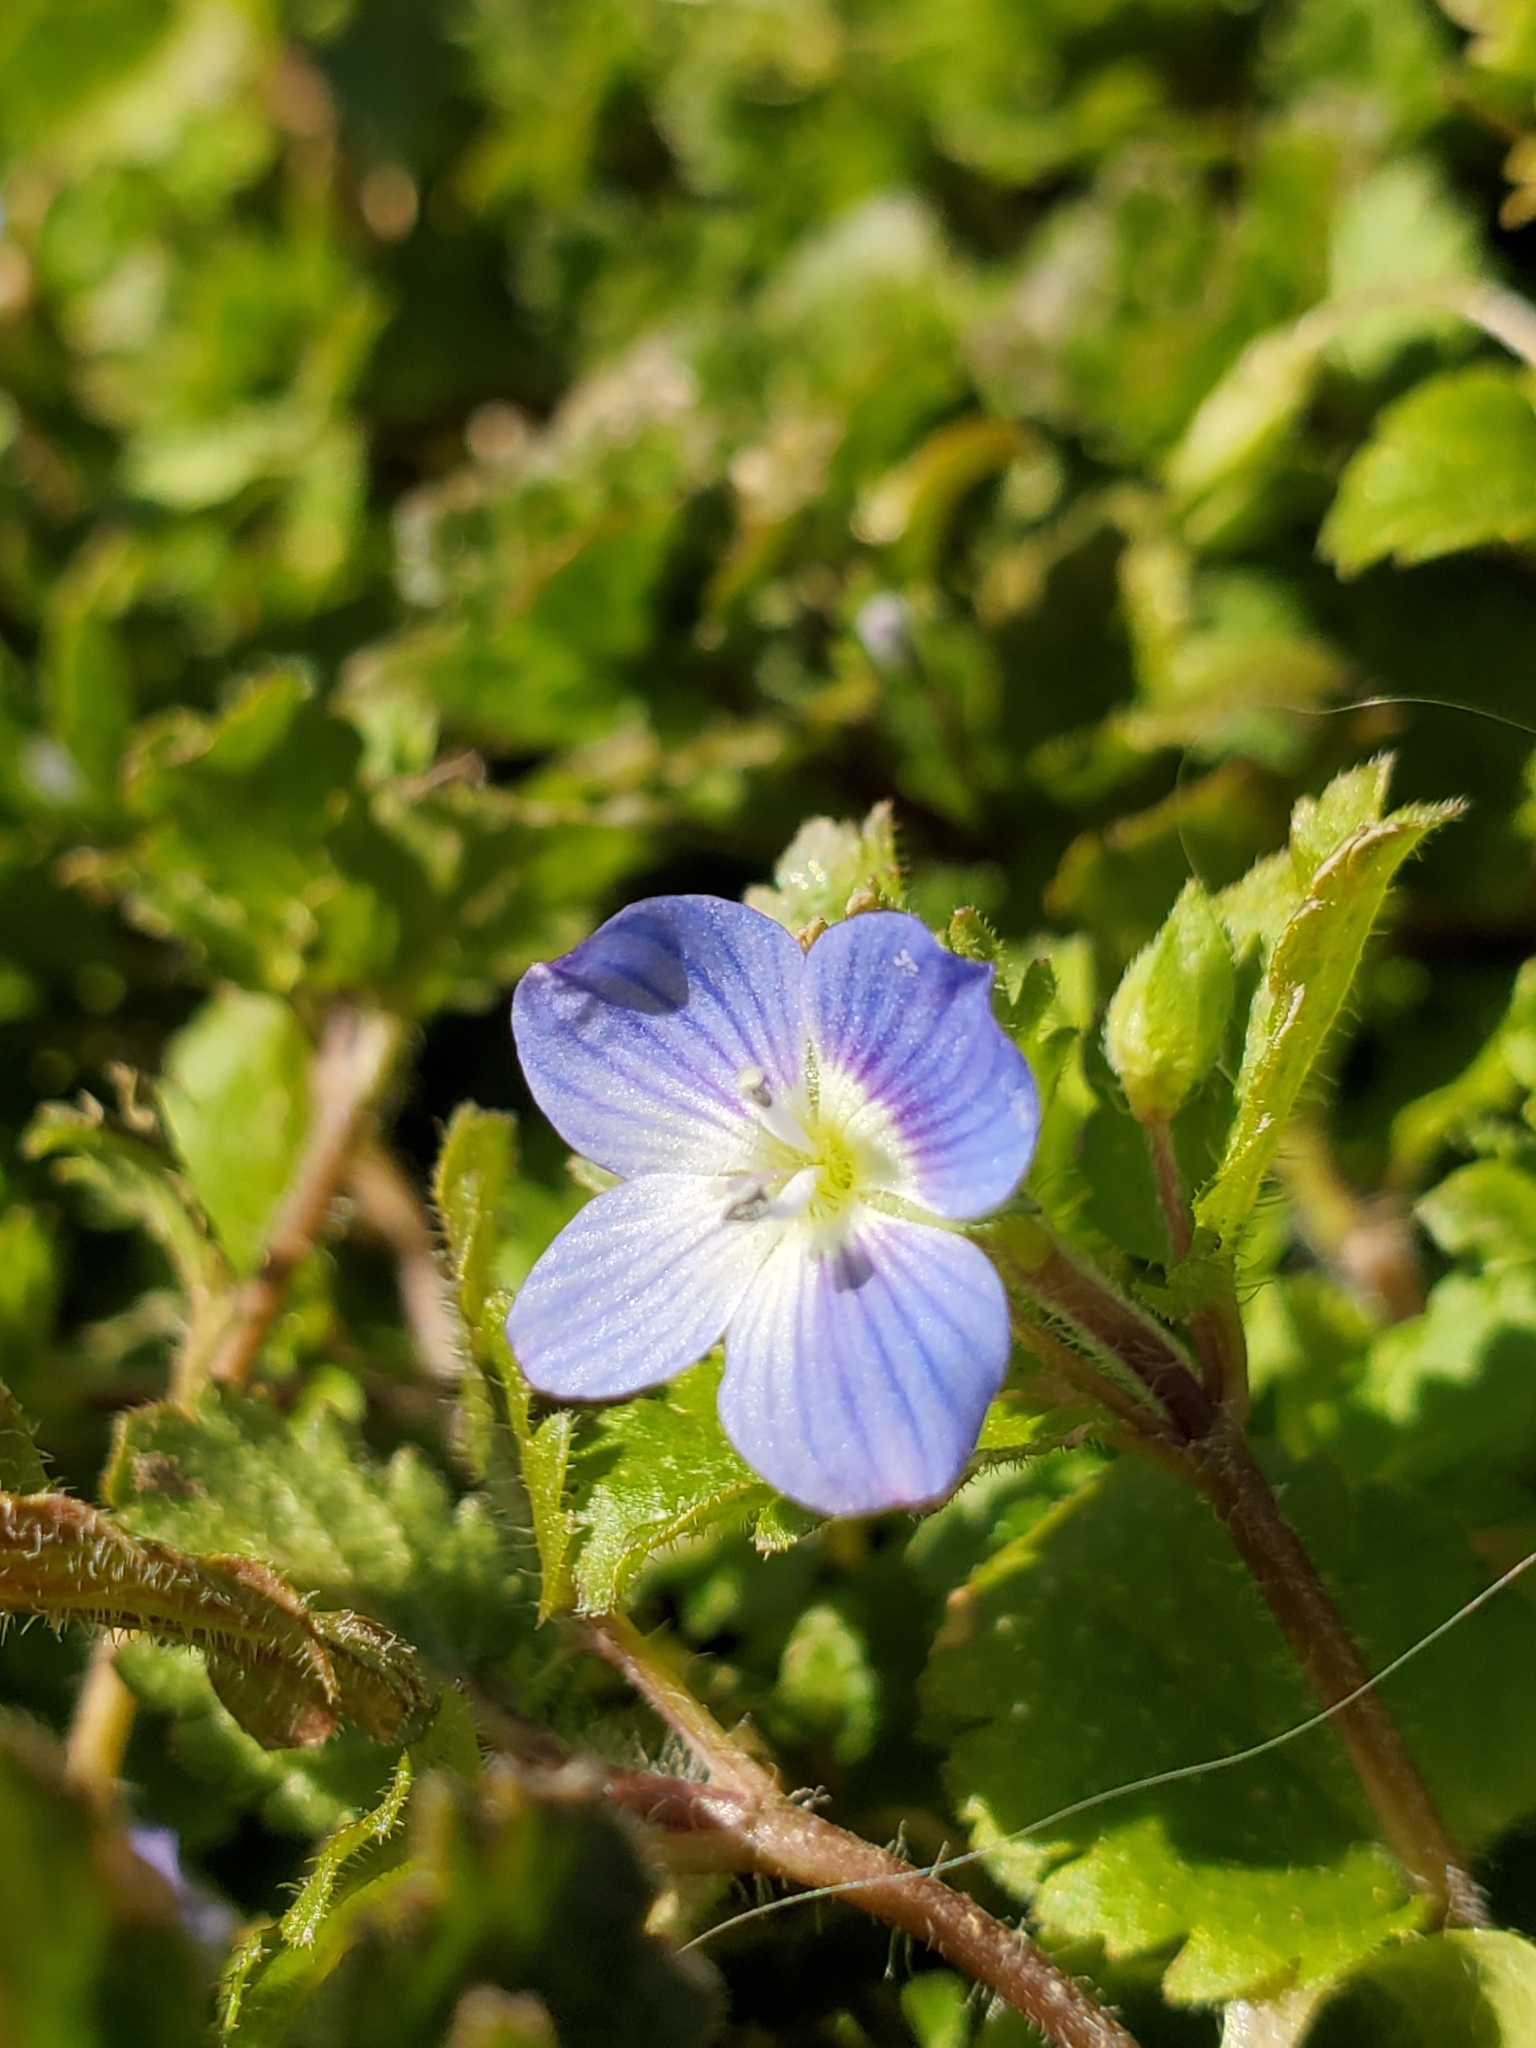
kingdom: Plantae
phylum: Tracheophyta
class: Magnoliopsida
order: Lamiales
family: Plantaginaceae
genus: Veronica
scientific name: Veronica persica
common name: Common field-speedwell
